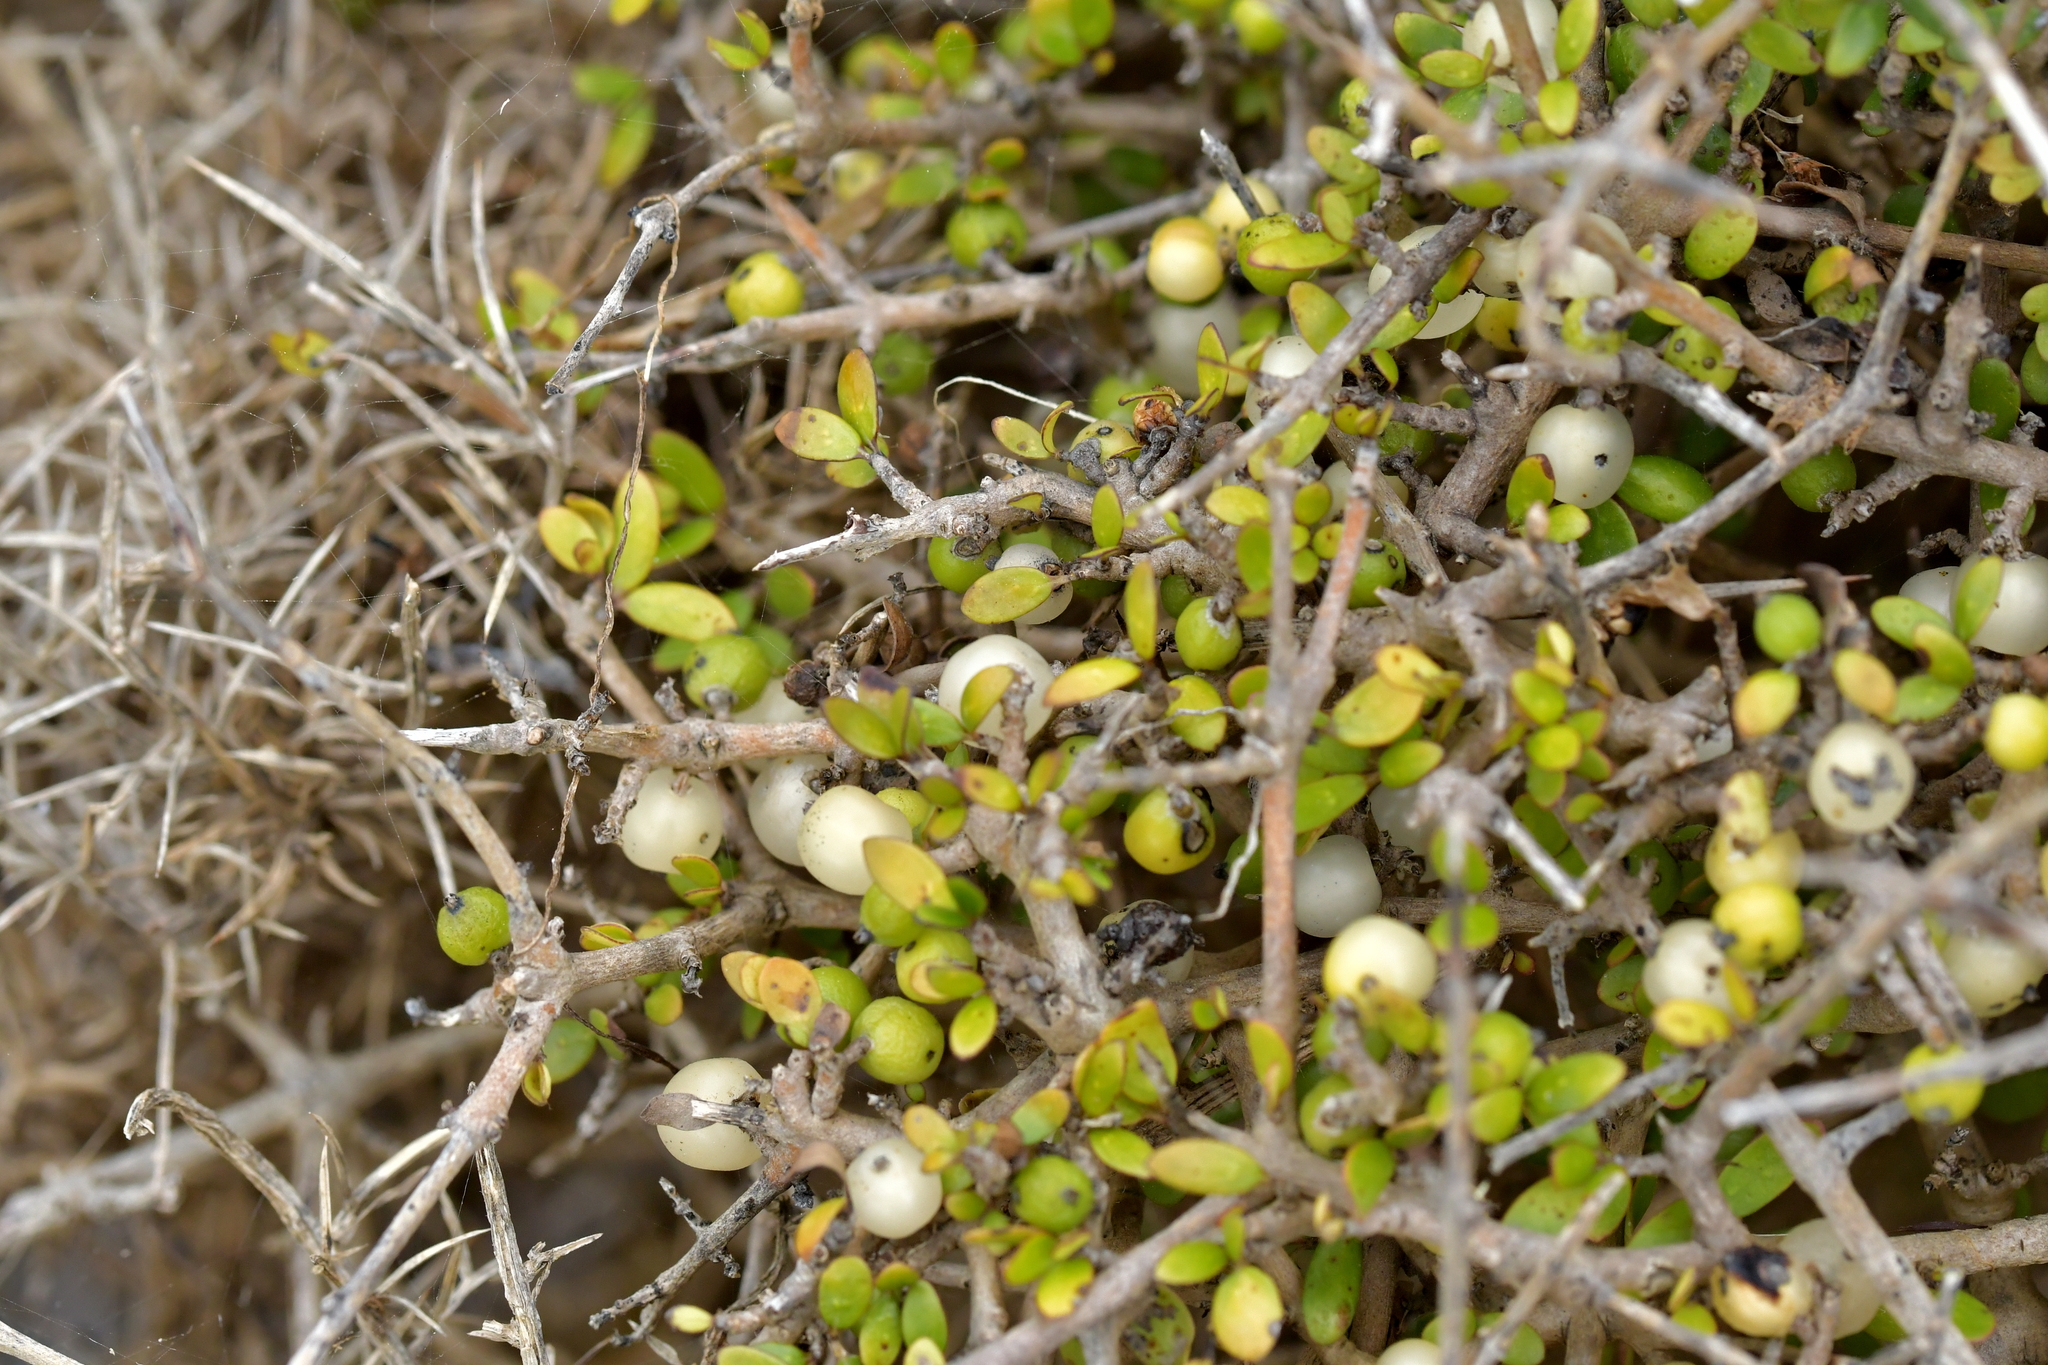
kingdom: Plantae
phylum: Tracheophyta
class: Magnoliopsida
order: Gentianales
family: Rubiaceae
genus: Coprosma
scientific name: Coprosma propinqua
